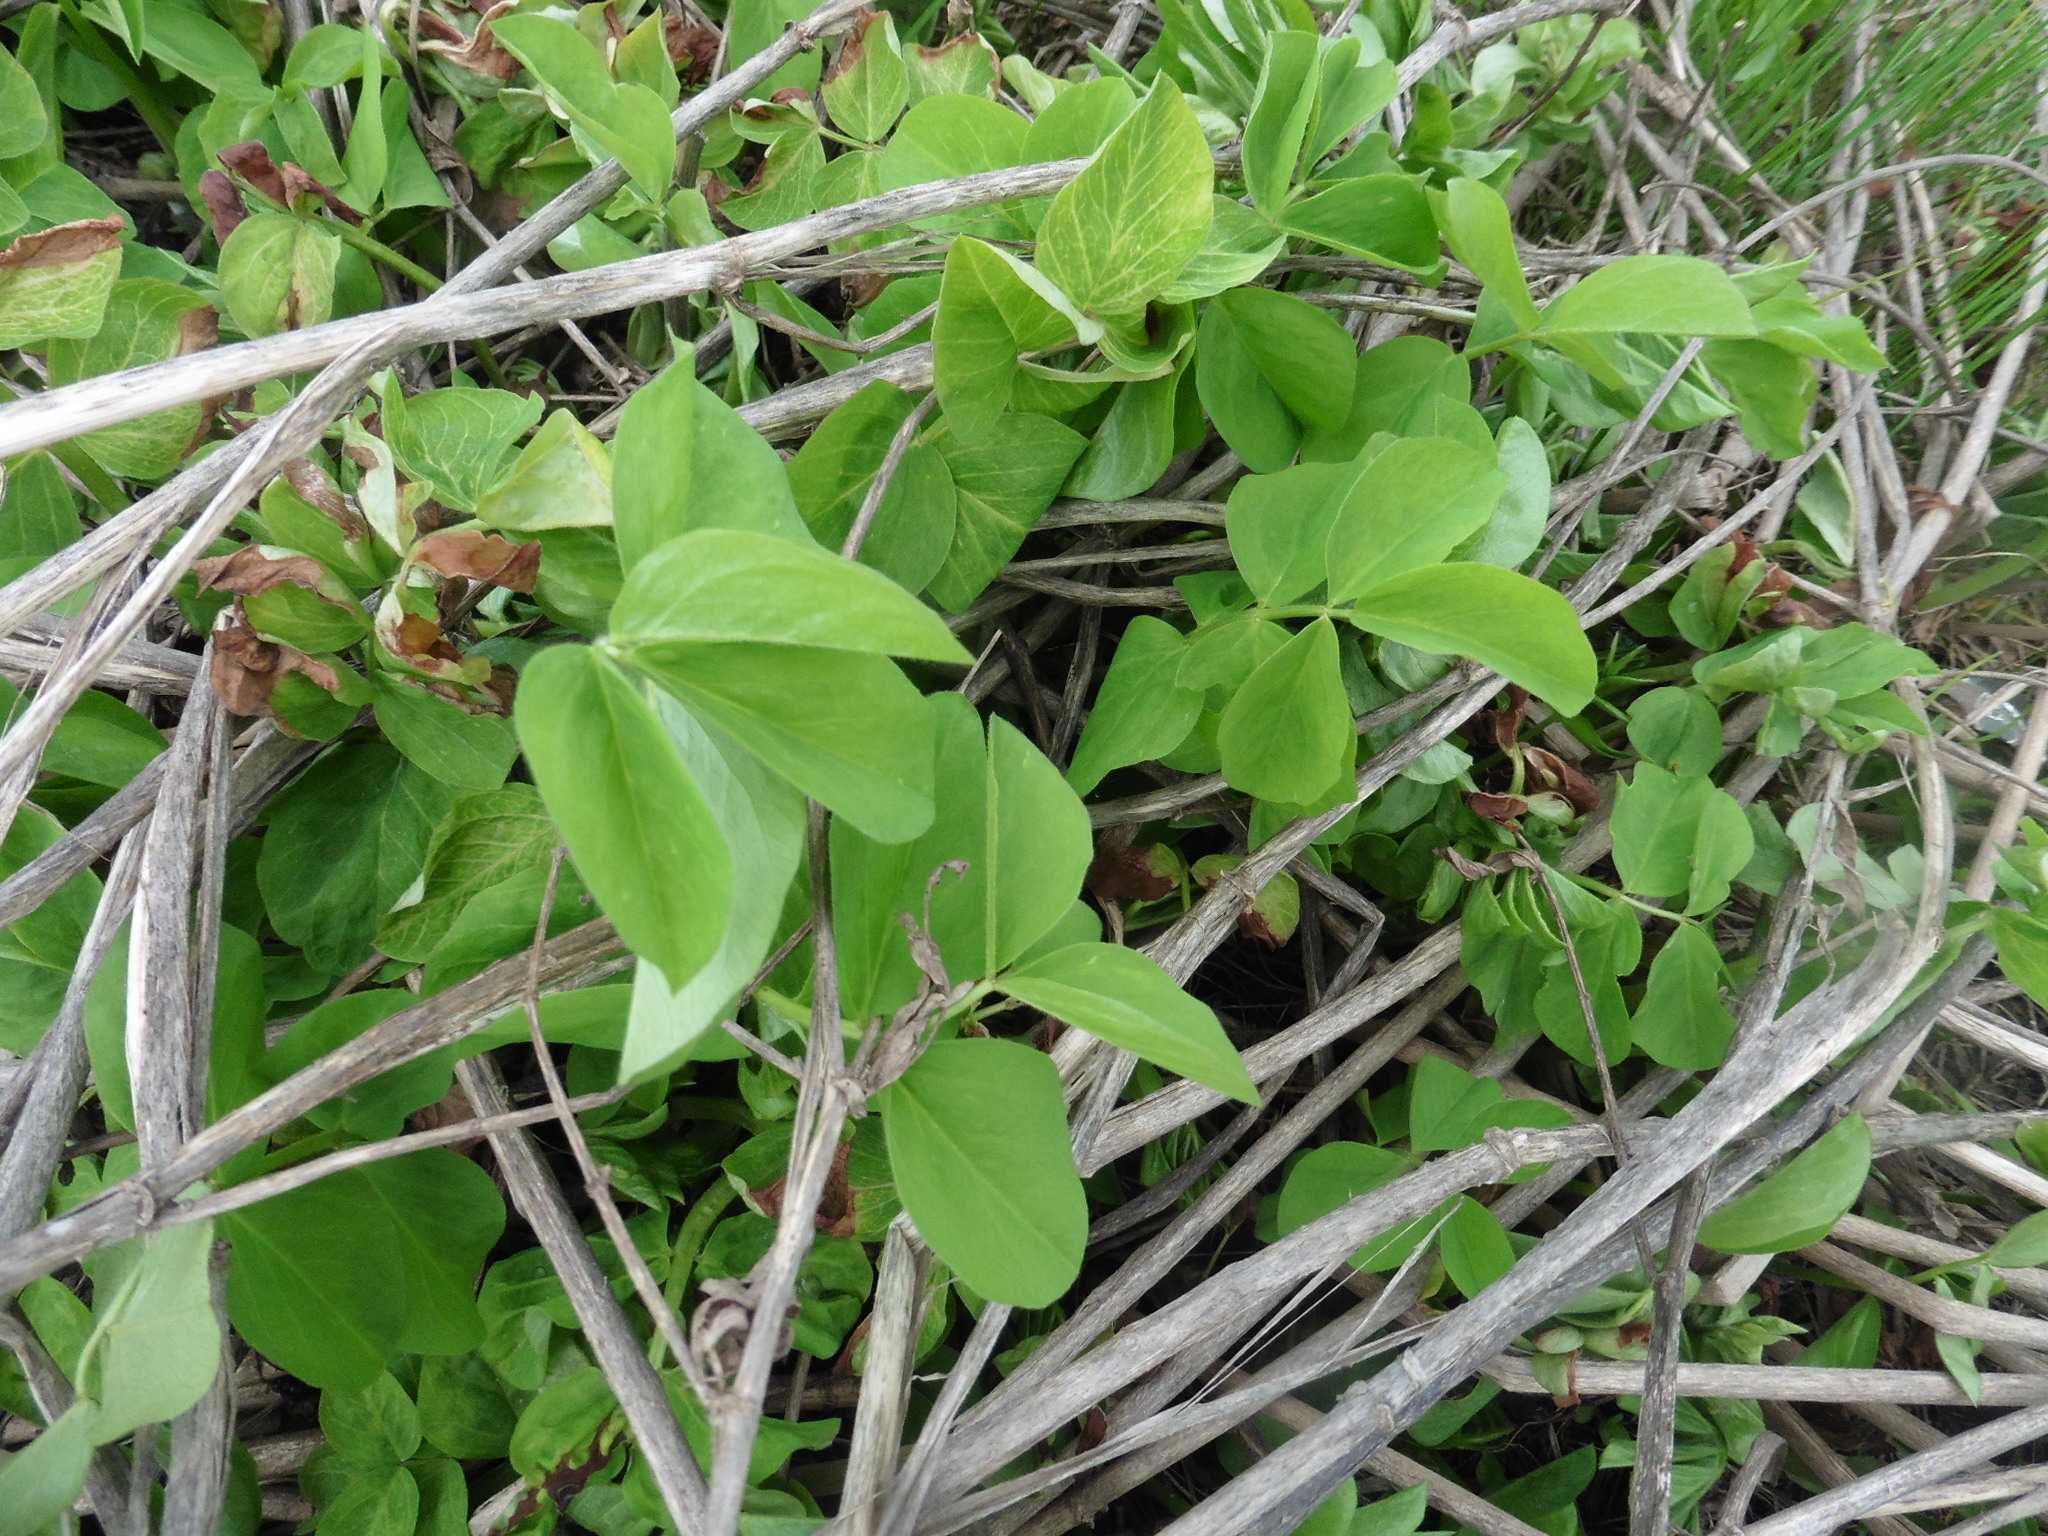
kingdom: Plantae
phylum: Tracheophyta
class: Magnoliopsida
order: Fabales
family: Fabaceae
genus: Galega
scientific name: Galega orientalis
